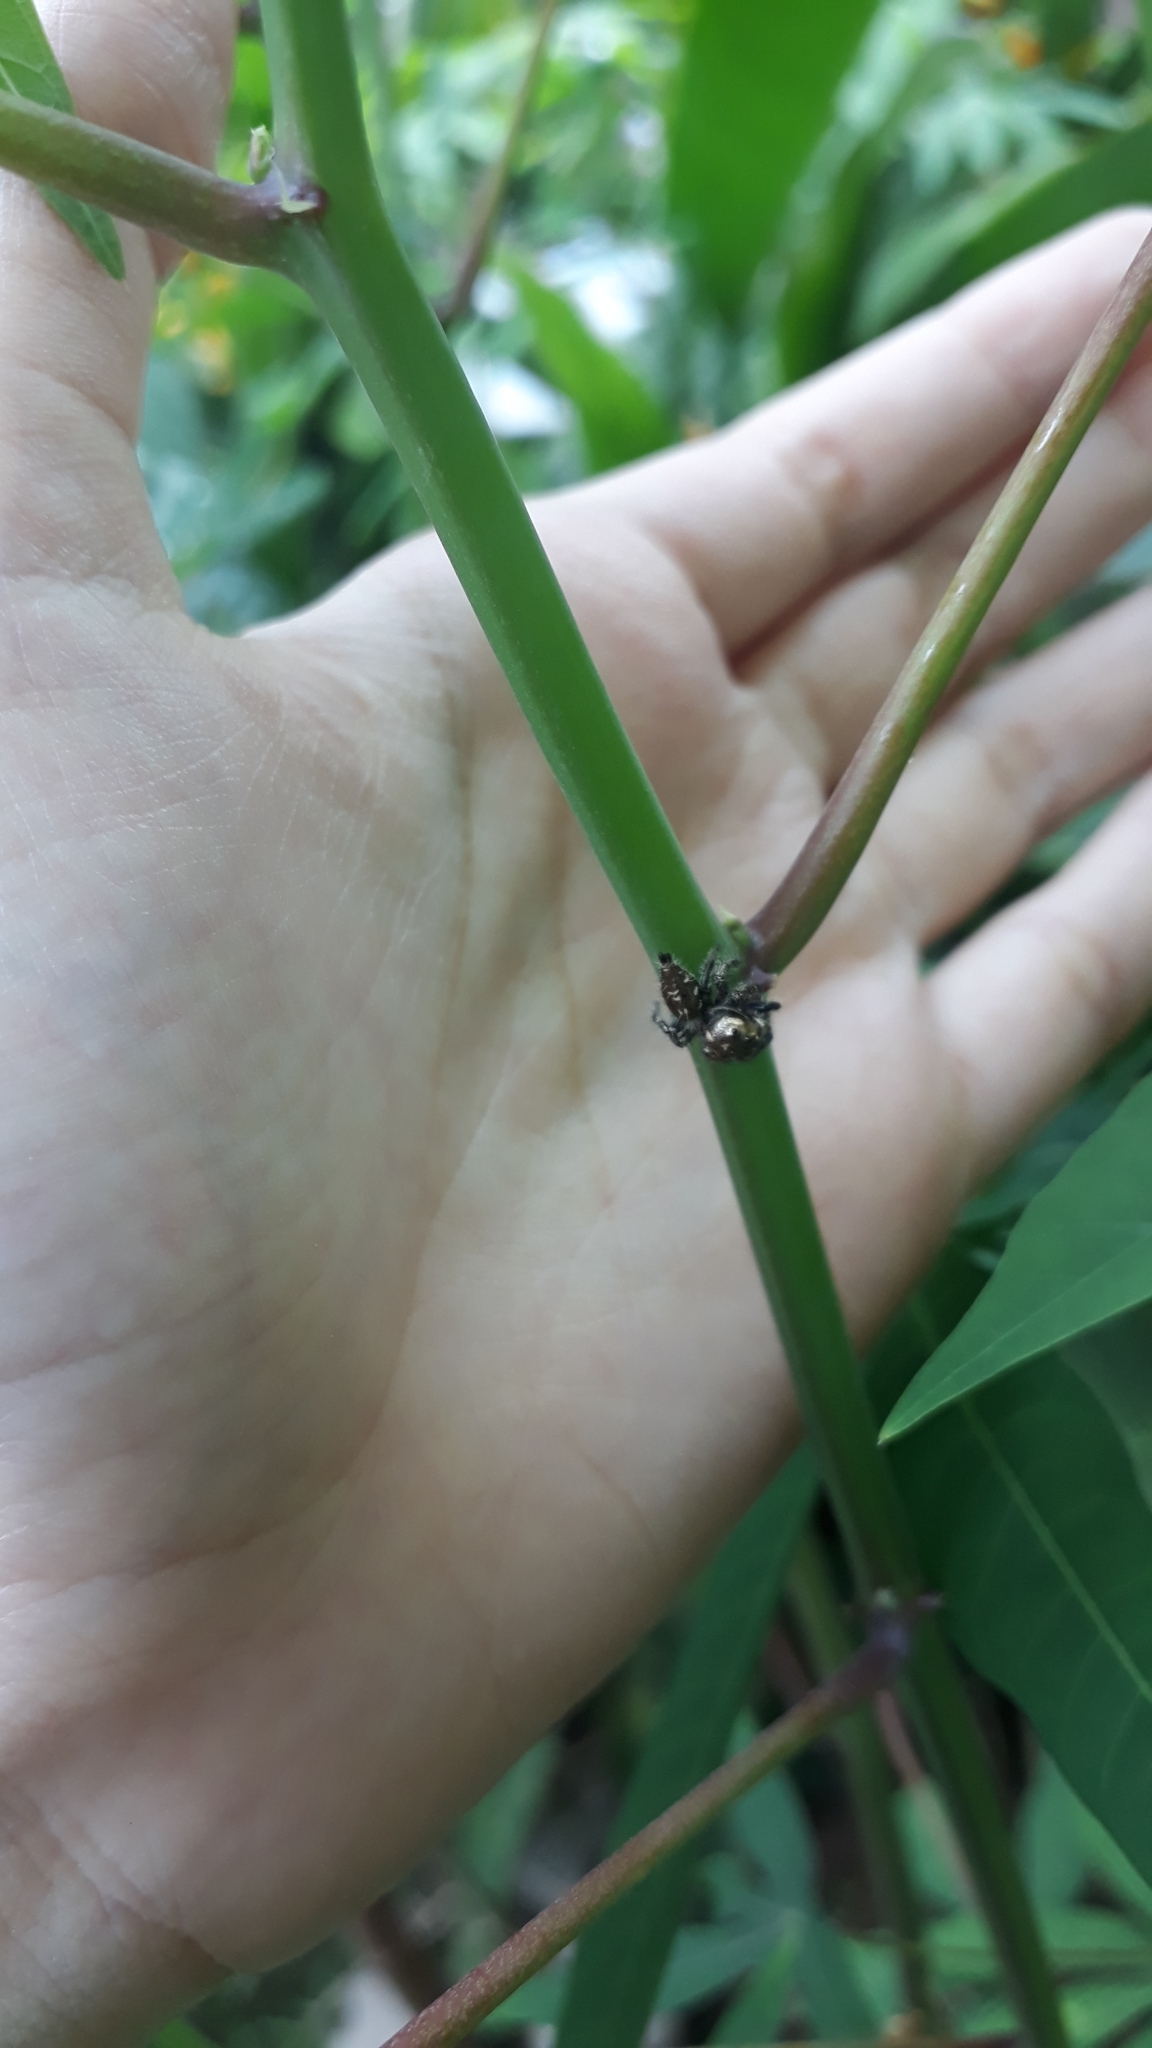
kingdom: Animalia
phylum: Arthropoda
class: Arachnida
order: Araneae
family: Salticidae
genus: Hyllus
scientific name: Hyllus semicupreus
